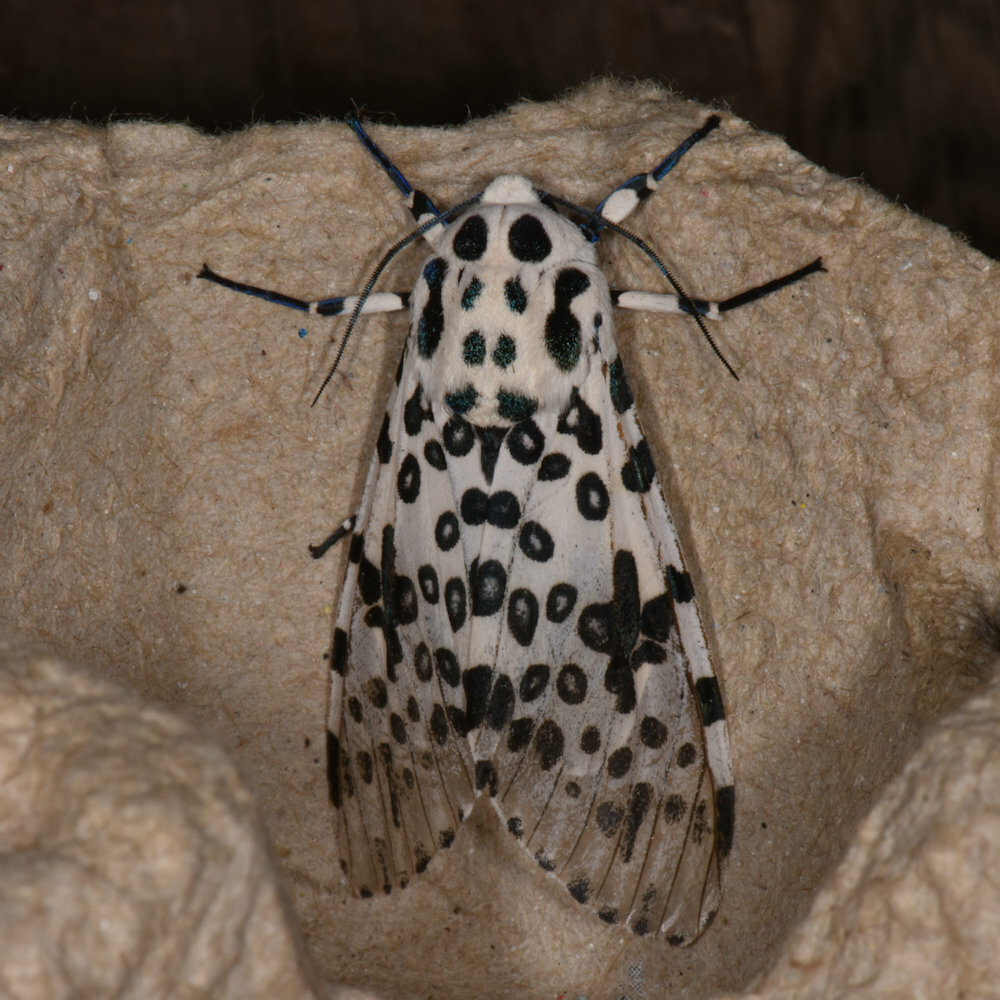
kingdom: Animalia
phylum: Arthropoda
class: Insecta
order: Lepidoptera
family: Erebidae
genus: Hypercompe
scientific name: Hypercompe scribonia
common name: Giant leopard moth
